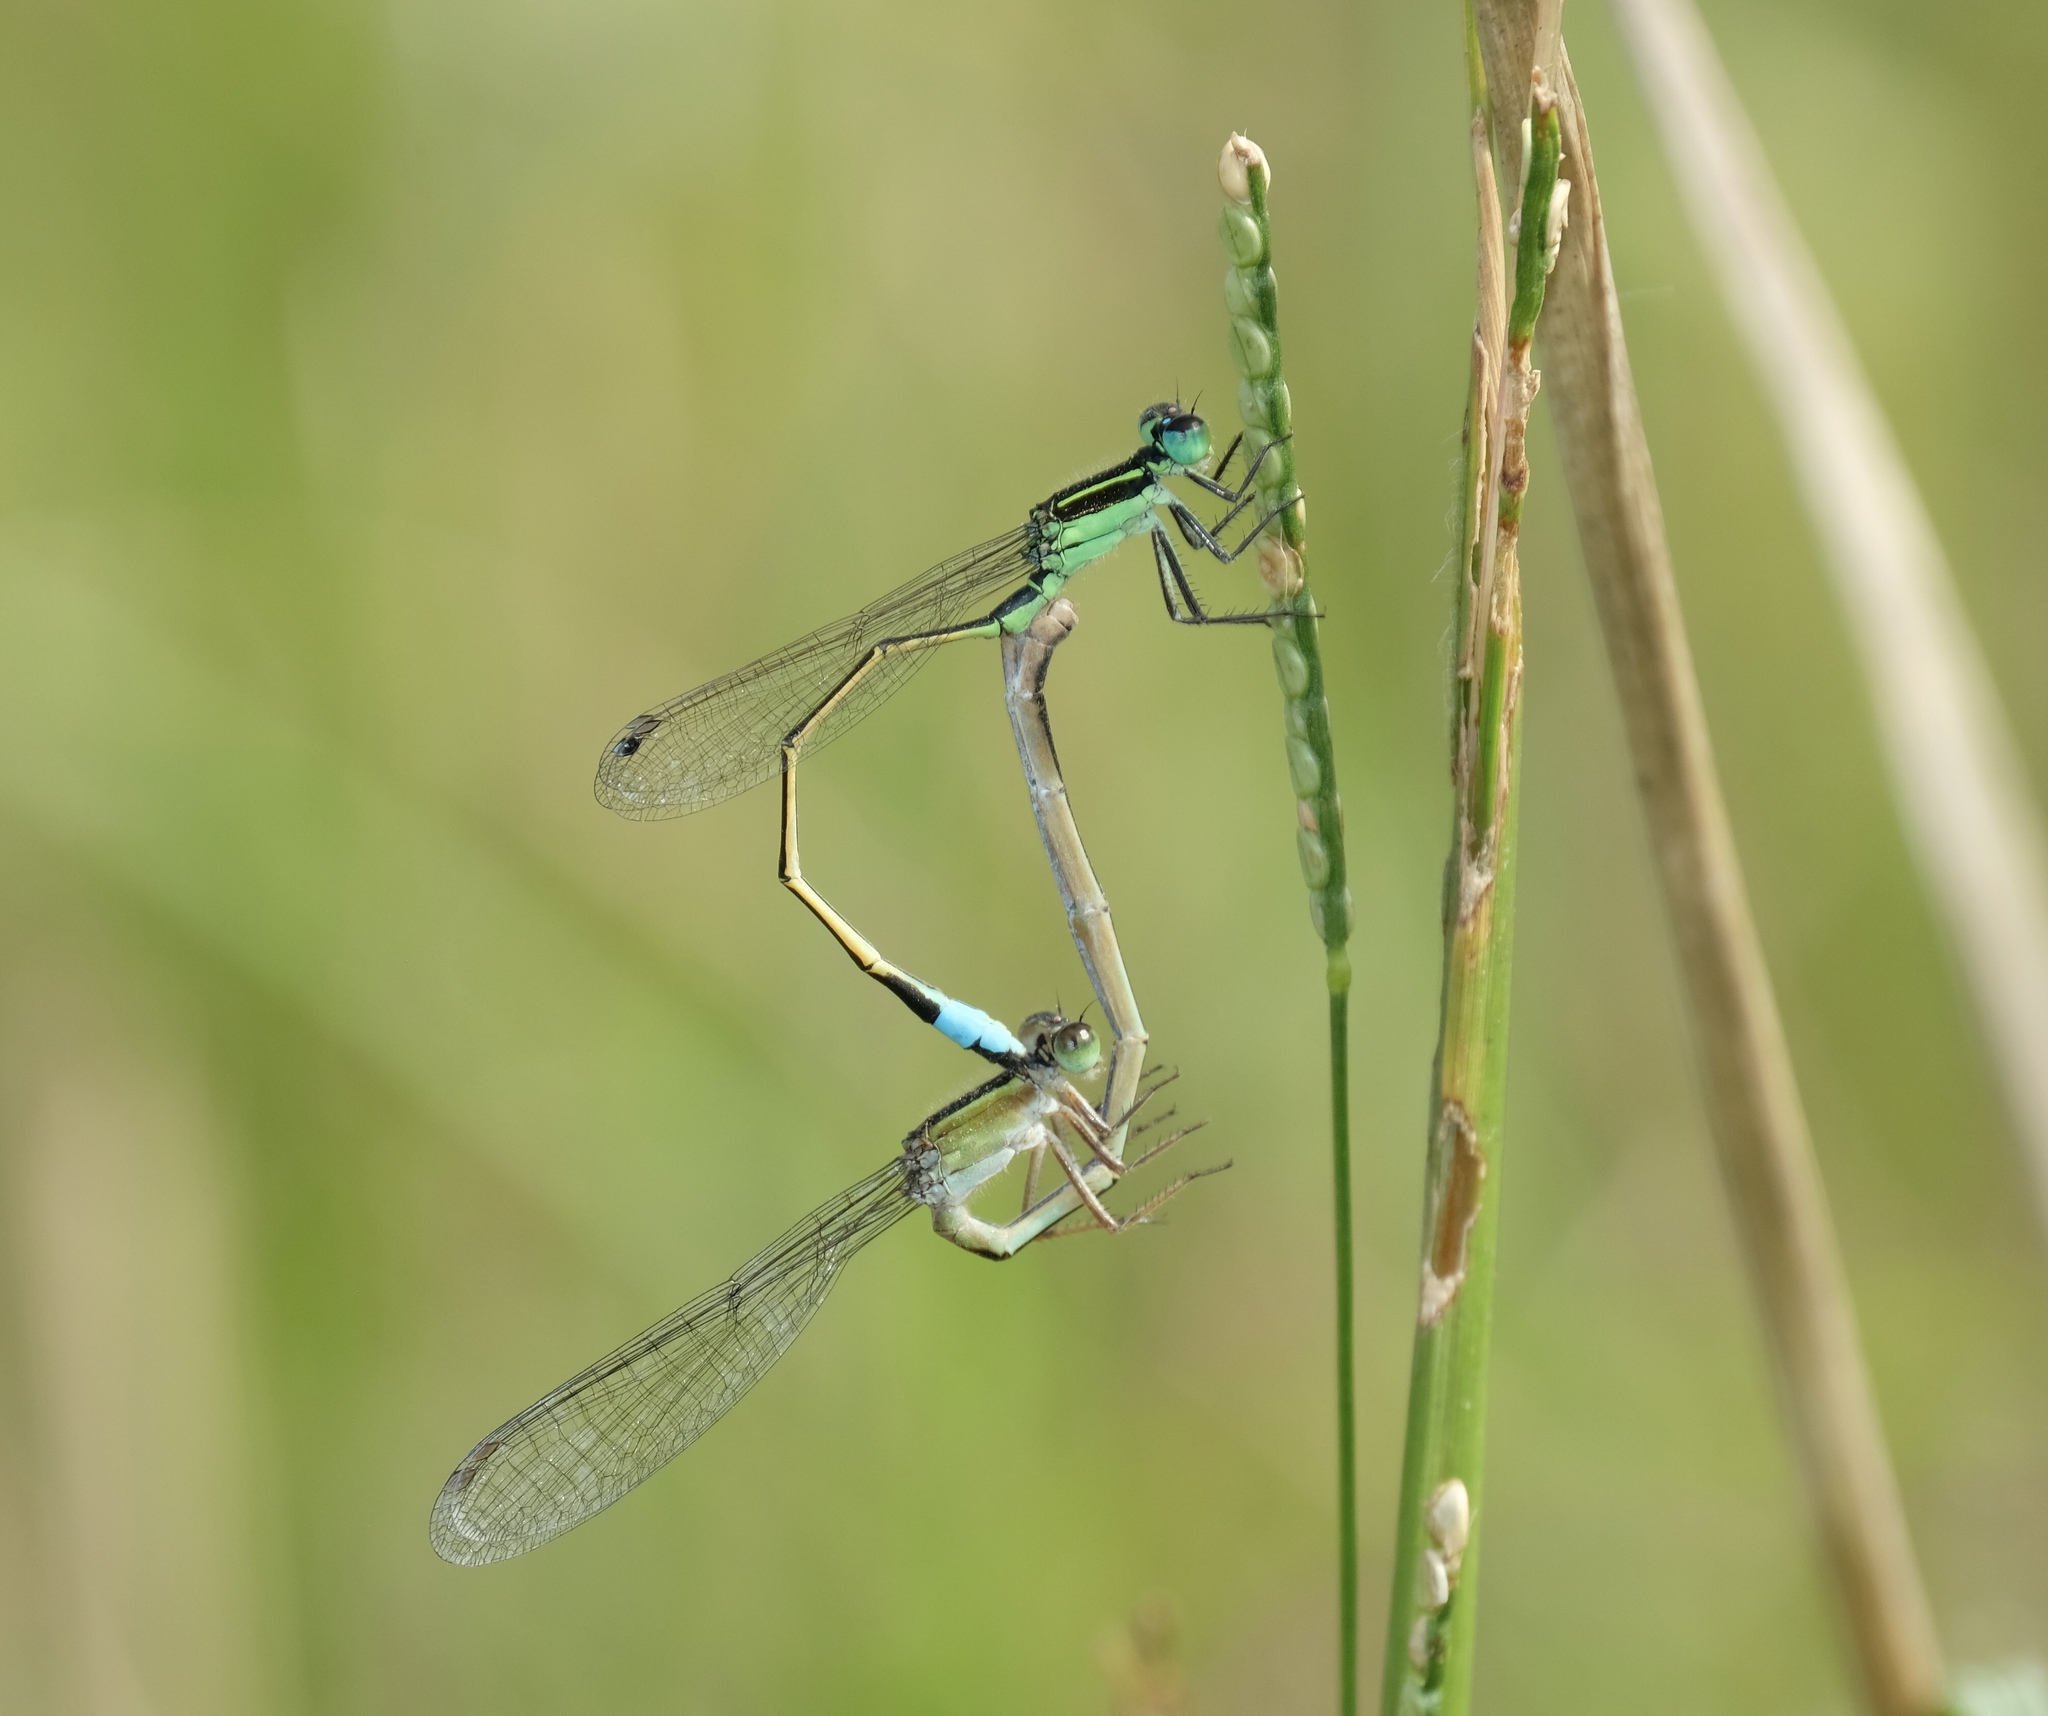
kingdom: Animalia
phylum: Arthropoda
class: Insecta
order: Odonata
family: Coenagrionidae
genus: Ischnura
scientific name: Ischnura ramburii
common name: Rambur's forktail
